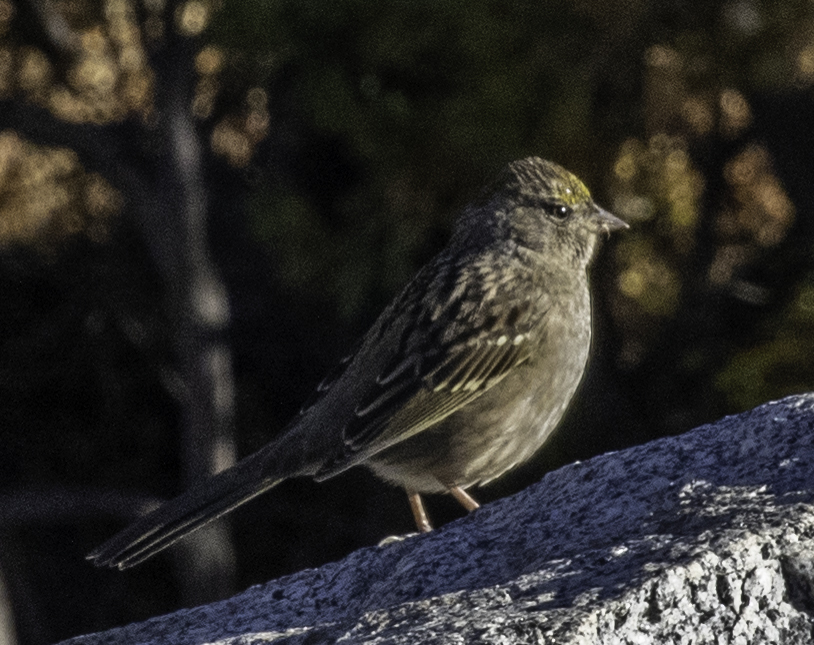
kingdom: Animalia
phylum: Chordata
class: Aves
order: Passeriformes
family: Passerellidae
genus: Zonotrichia
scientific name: Zonotrichia atricapilla
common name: Golden-crowned sparrow
